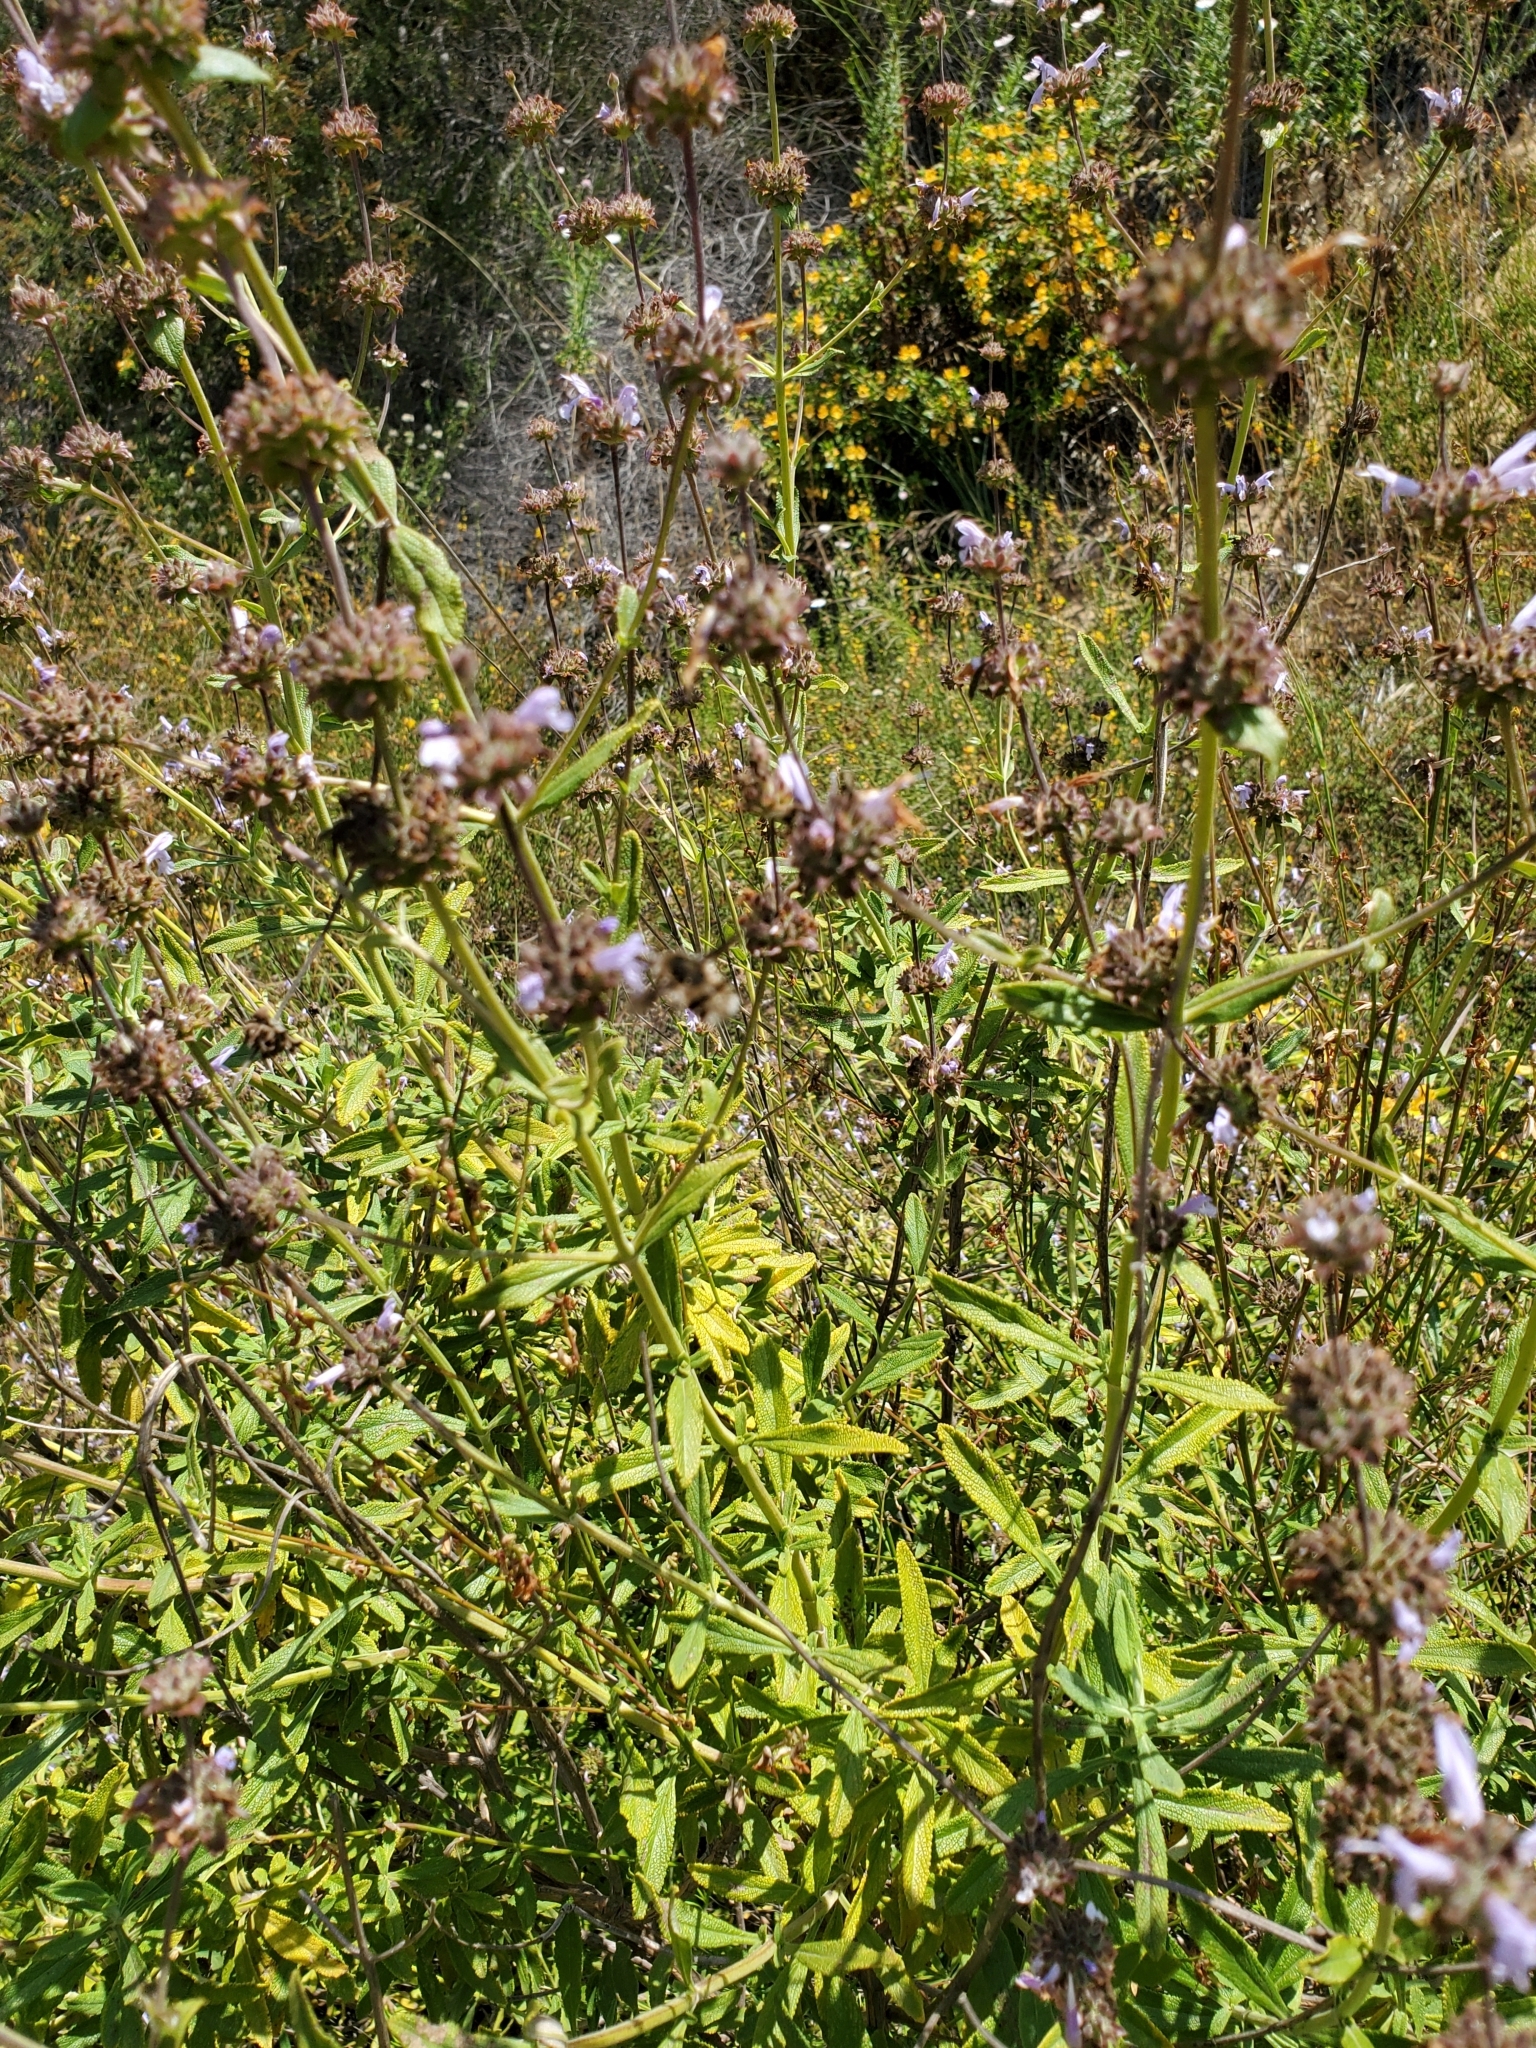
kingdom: Plantae
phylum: Tracheophyta
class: Magnoliopsida
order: Lamiales
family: Lamiaceae
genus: Salvia
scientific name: Salvia mellifera
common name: Black sage
